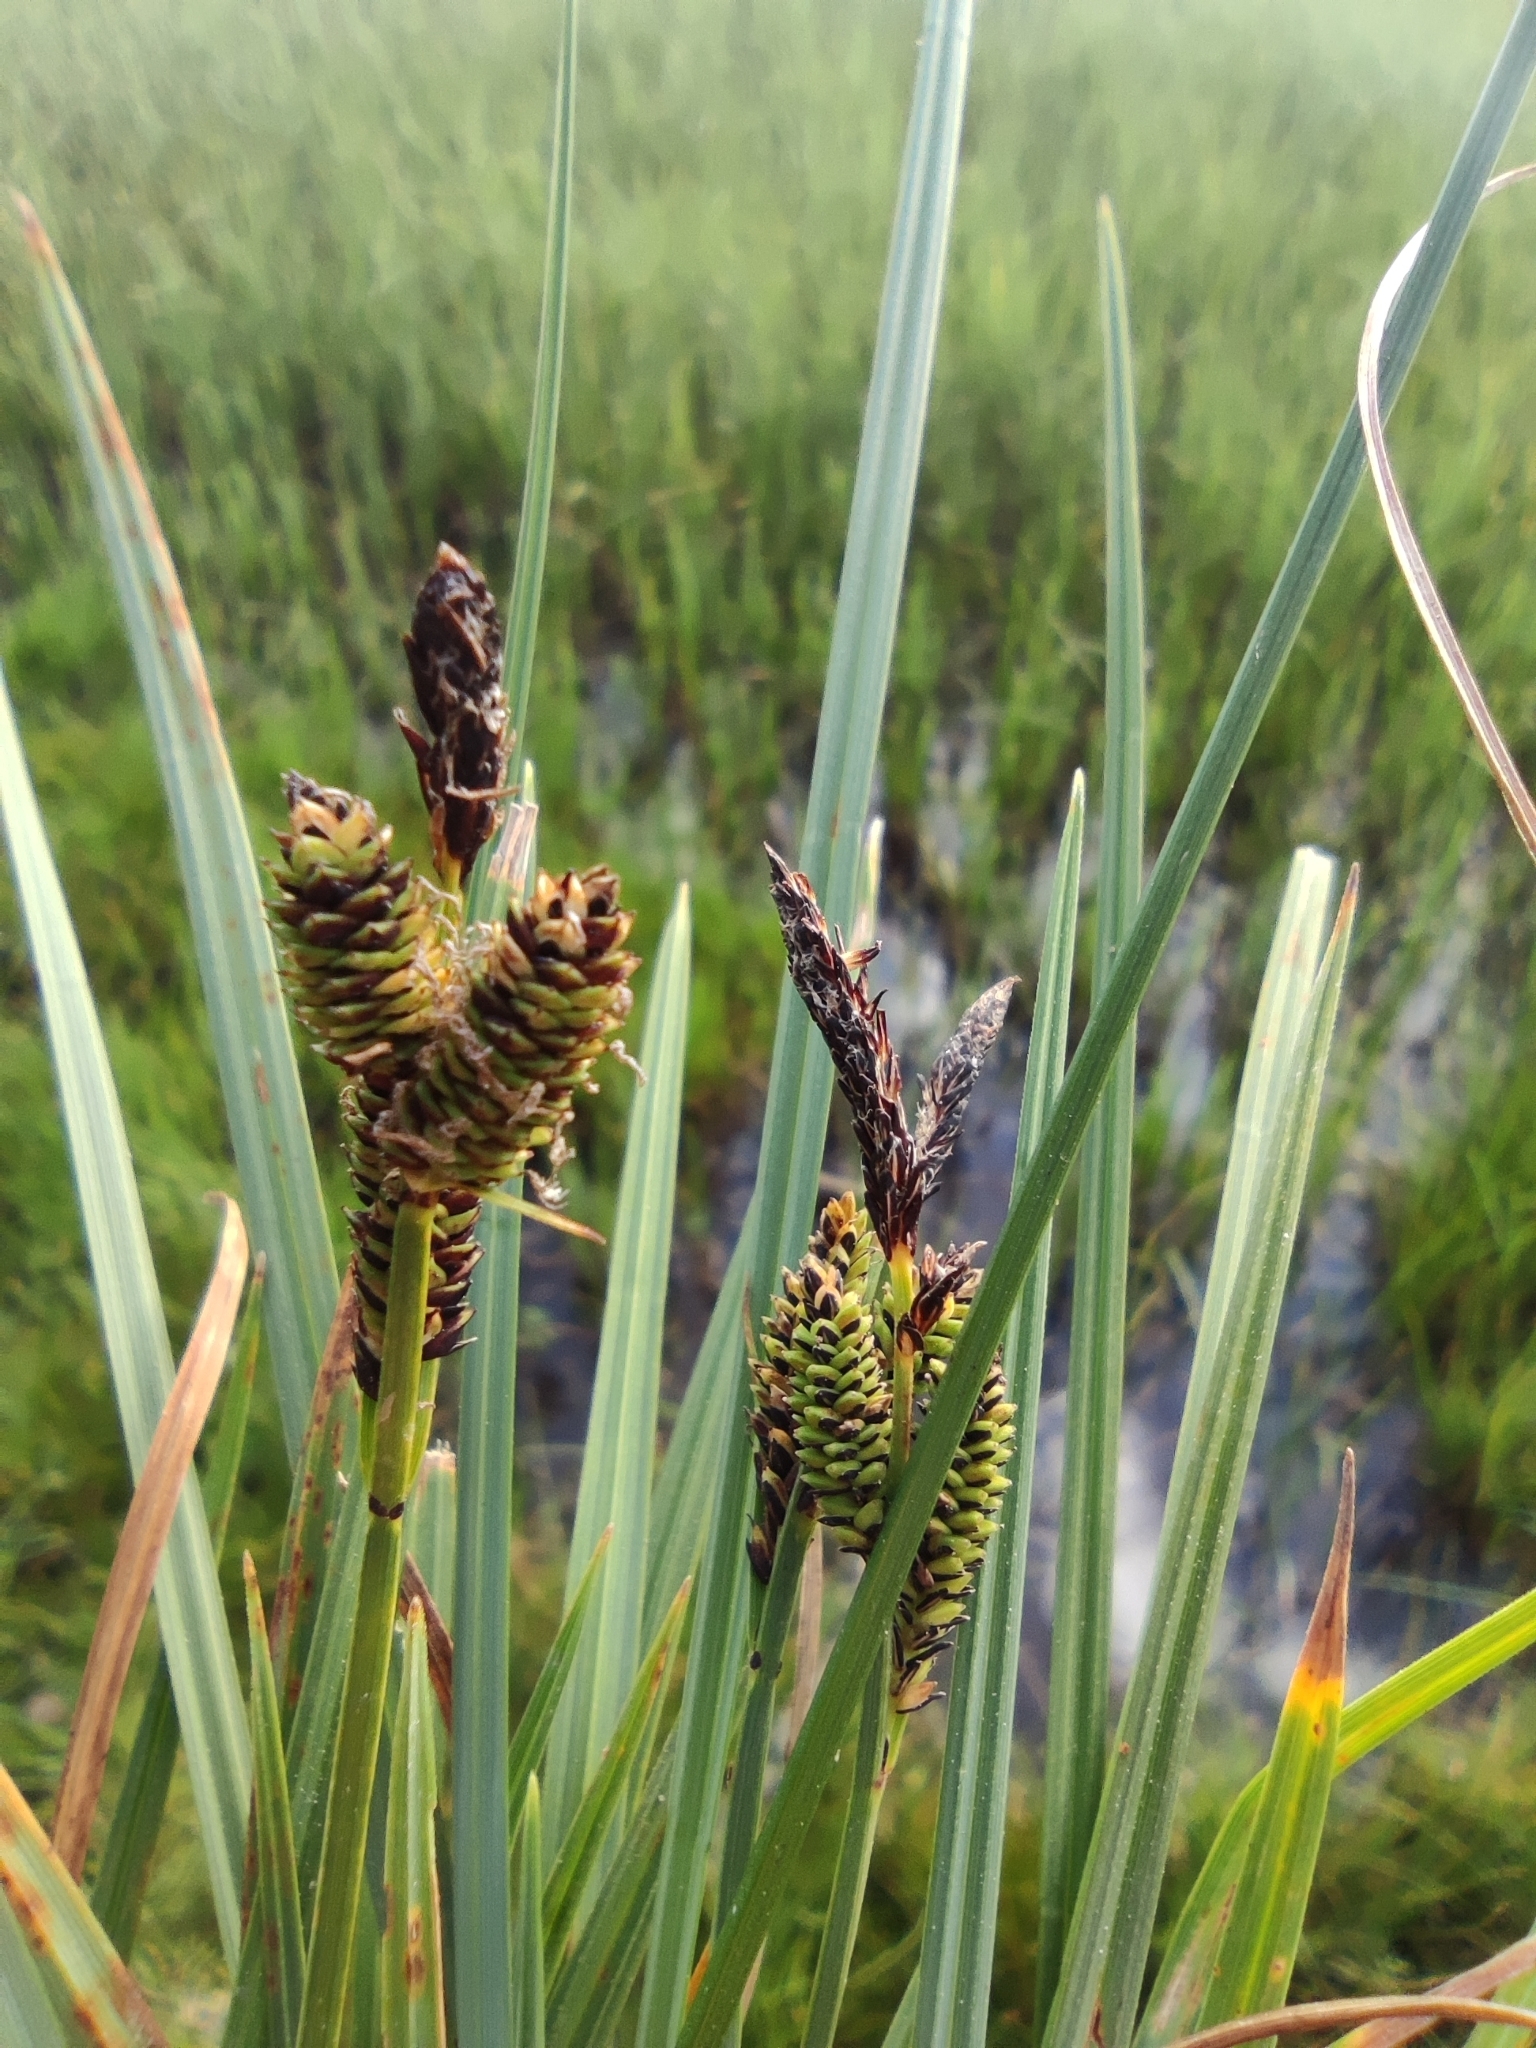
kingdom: Plantae
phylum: Tracheophyta
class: Liliopsida
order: Poales
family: Cyperaceae
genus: Carex
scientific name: Carex nigra
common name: Common sedge
